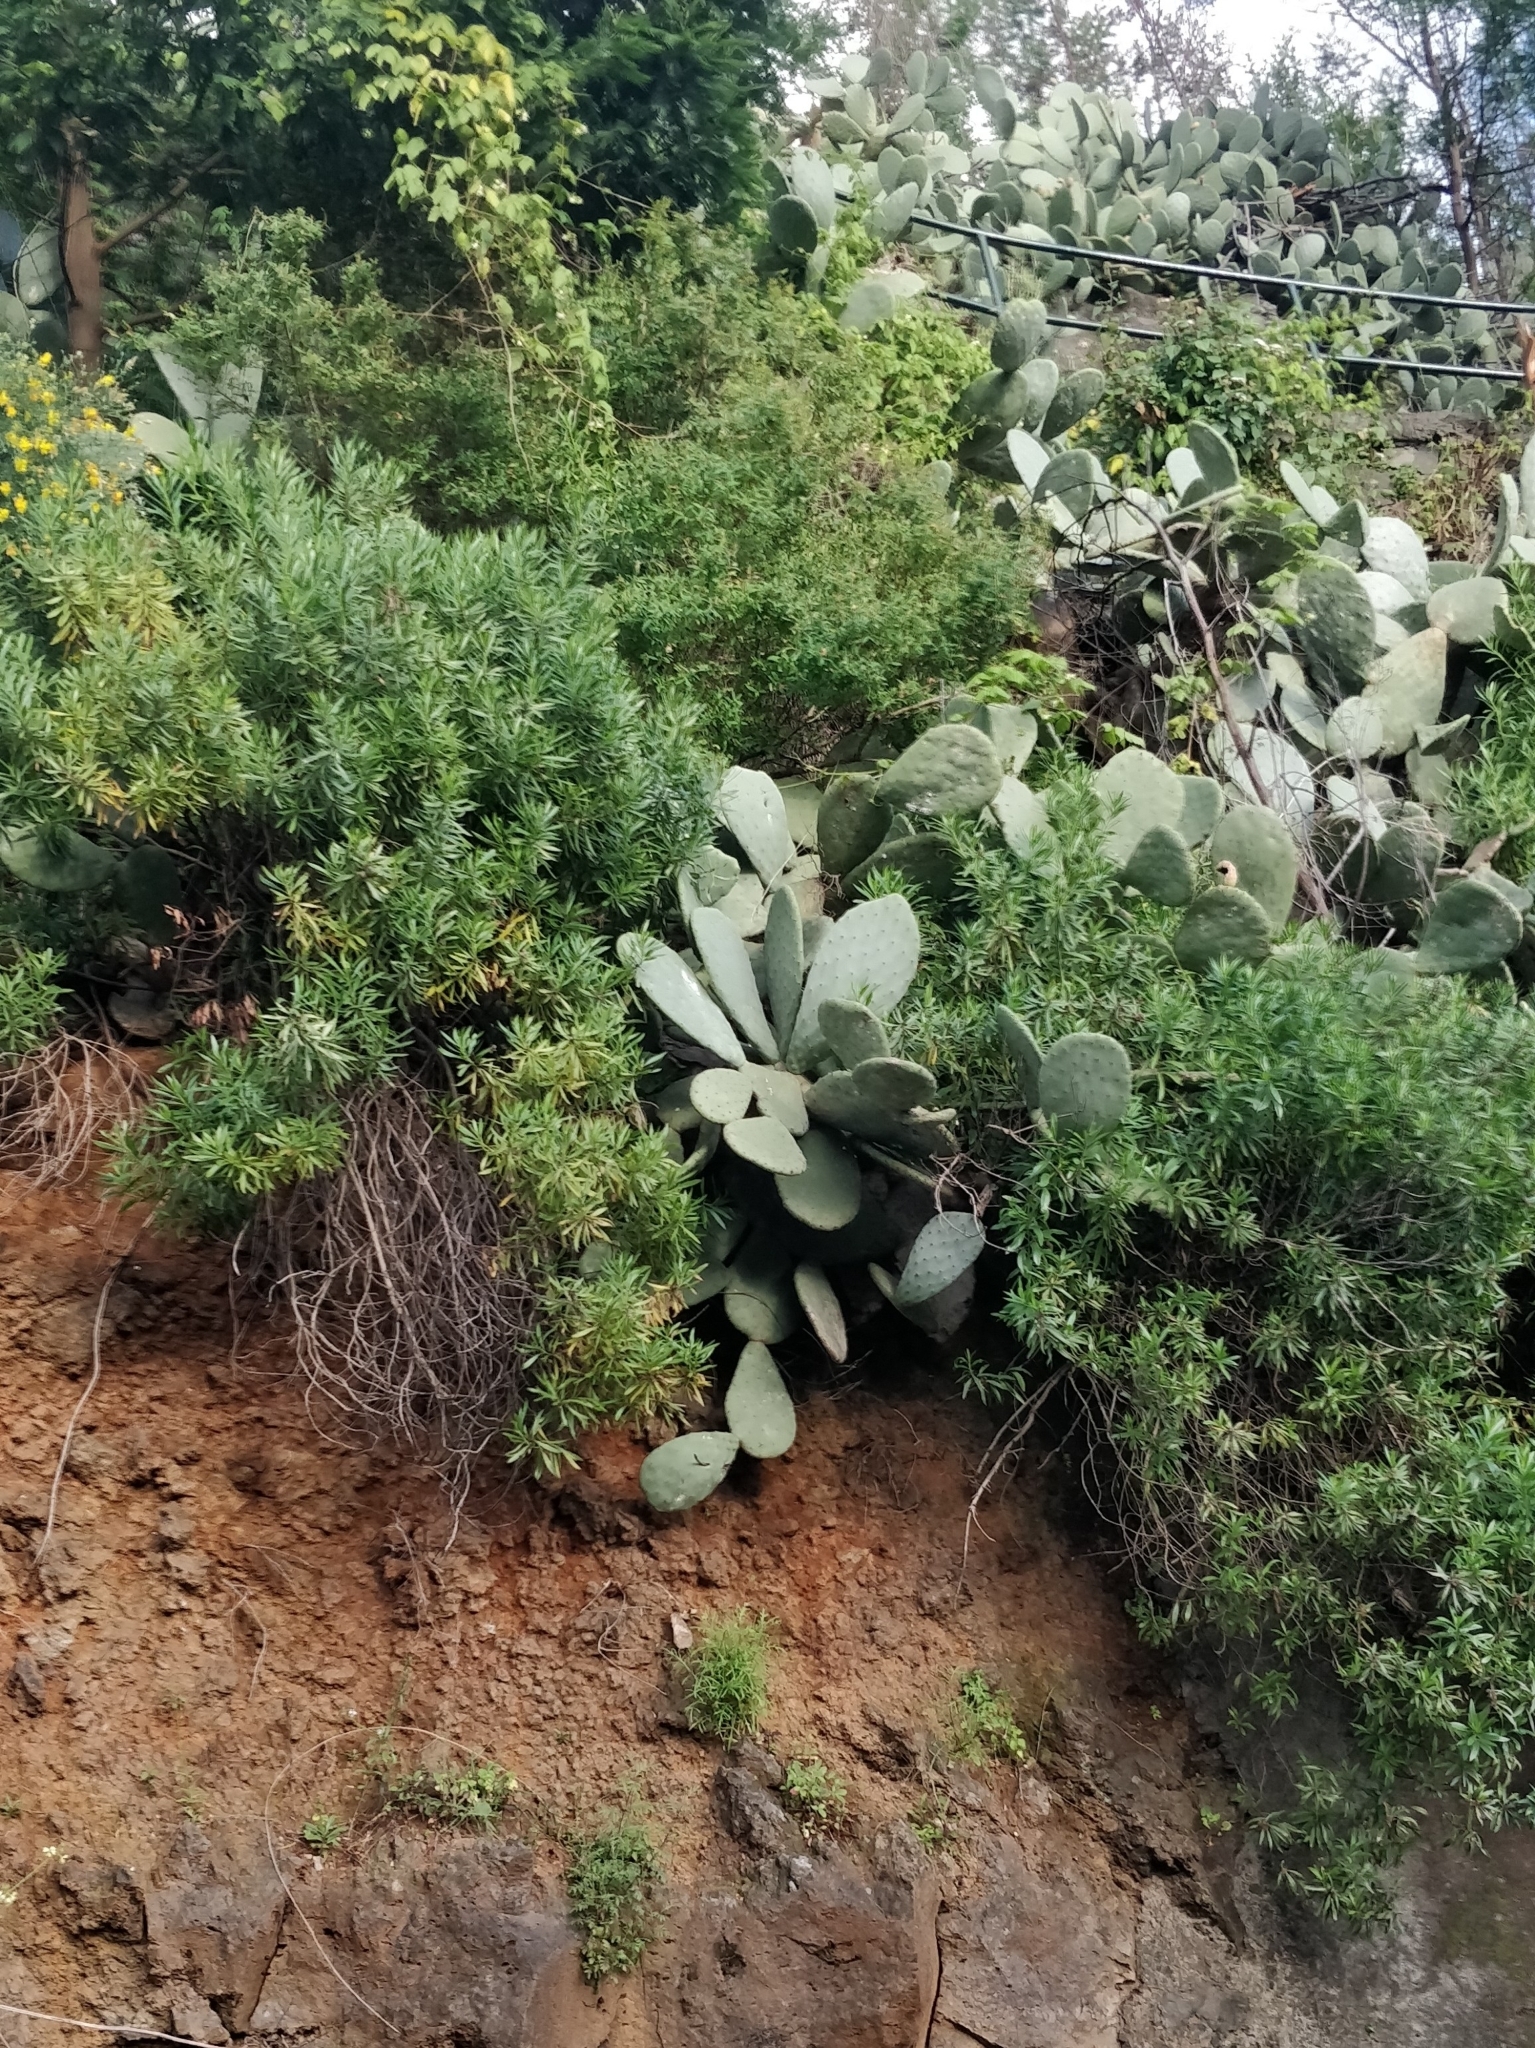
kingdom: Plantae
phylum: Tracheophyta
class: Magnoliopsida
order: Lamiales
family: Plantaginaceae
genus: Globularia
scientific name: Globularia salicina
